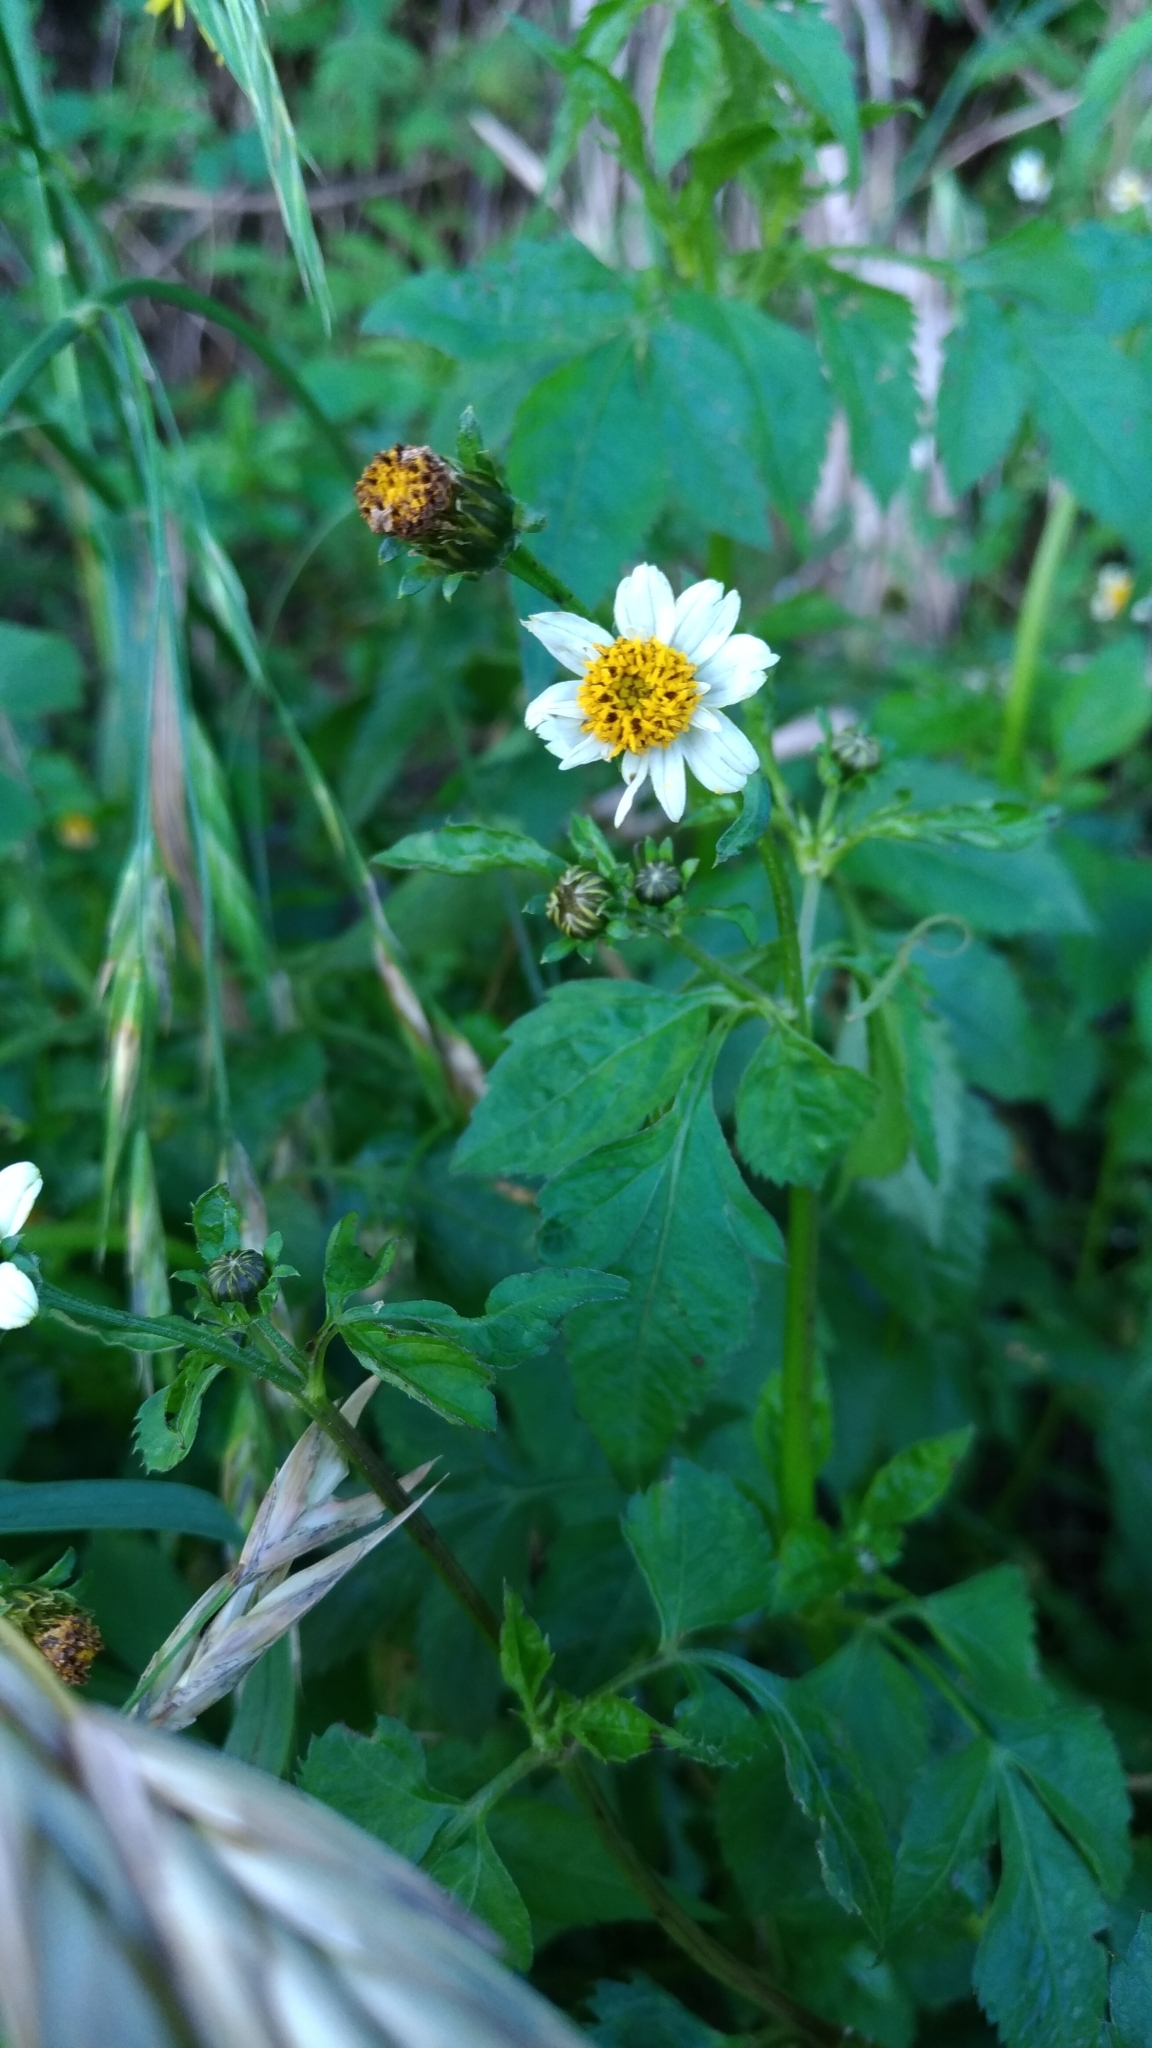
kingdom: Plantae
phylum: Tracheophyta
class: Magnoliopsida
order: Asterales
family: Asteraceae
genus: Bidens
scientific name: Bidens alba
